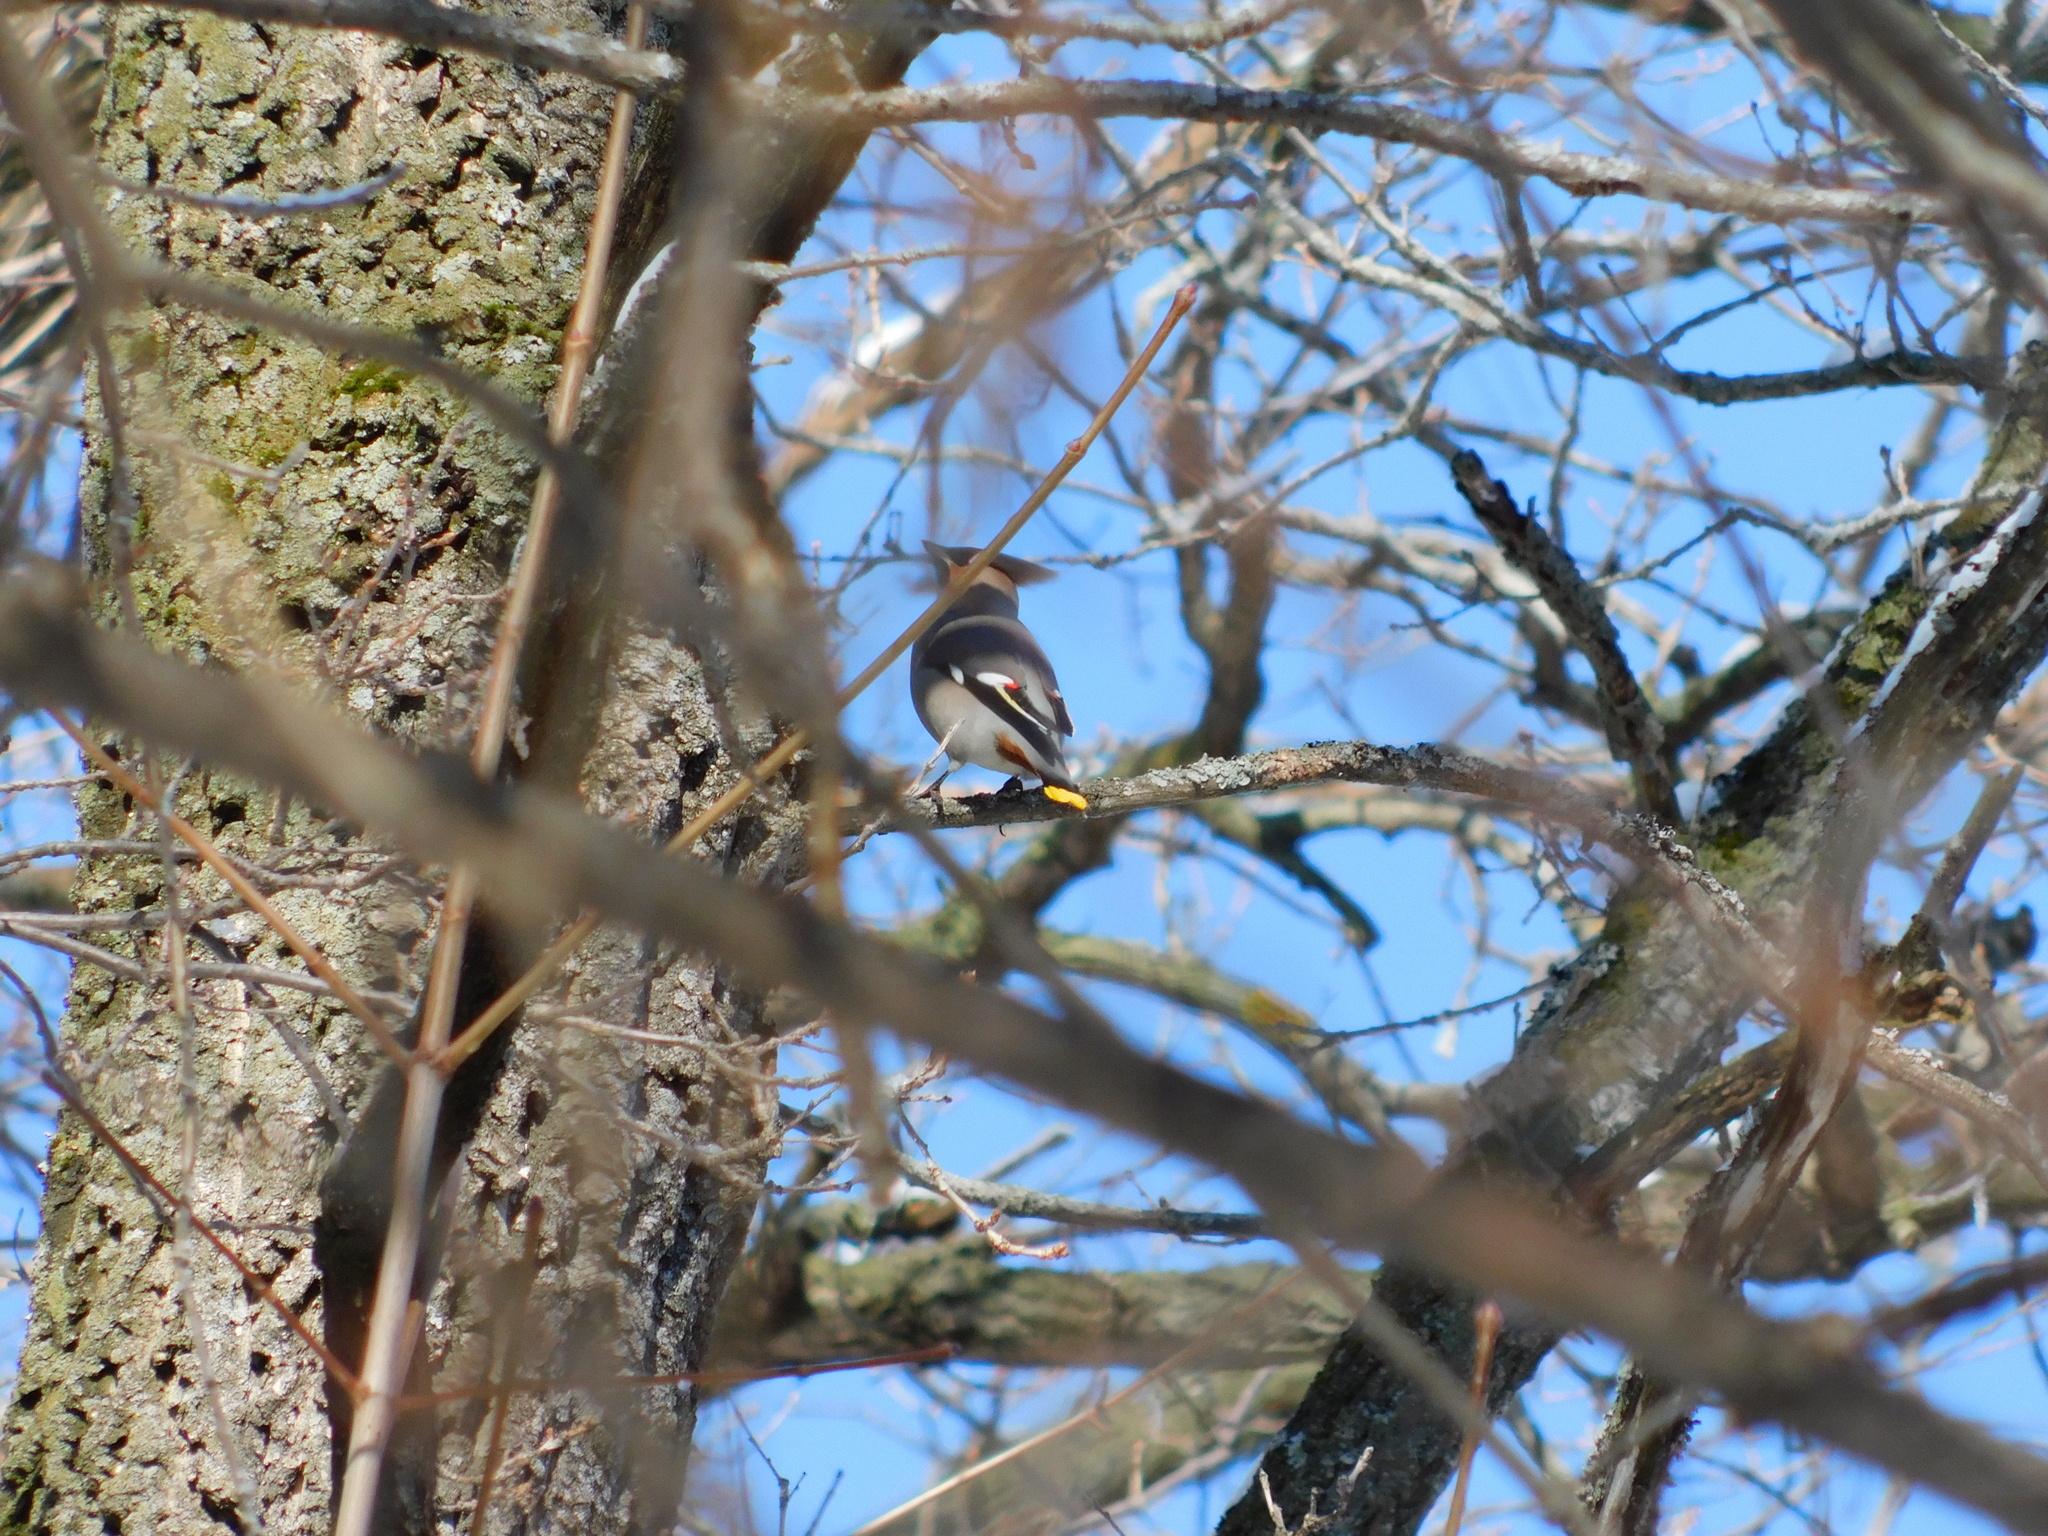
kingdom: Animalia
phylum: Chordata
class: Aves
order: Passeriformes
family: Bombycillidae
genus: Bombycilla
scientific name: Bombycilla garrulus
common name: Bohemian waxwing
